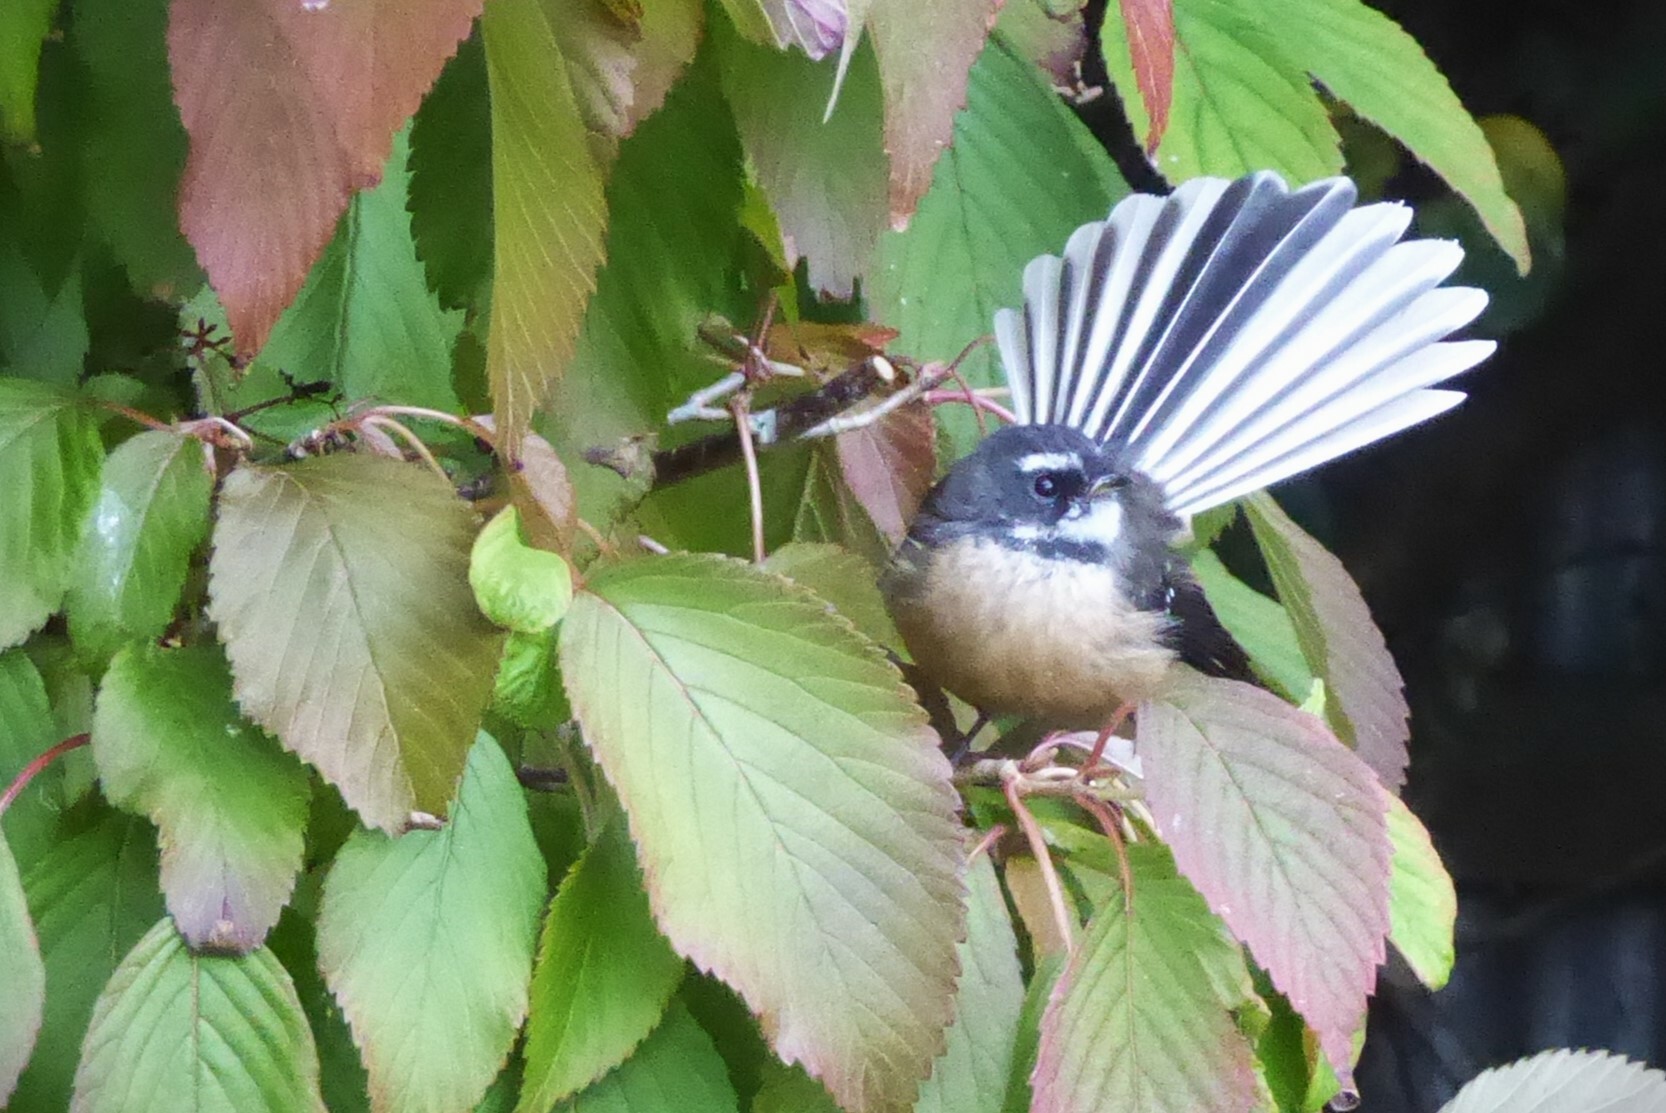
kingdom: Animalia
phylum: Chordata
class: Aves
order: Passeriformes
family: Rhipiduridae
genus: Rhipidura
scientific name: Rhipidura fuliginosa
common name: New zealand fantail
